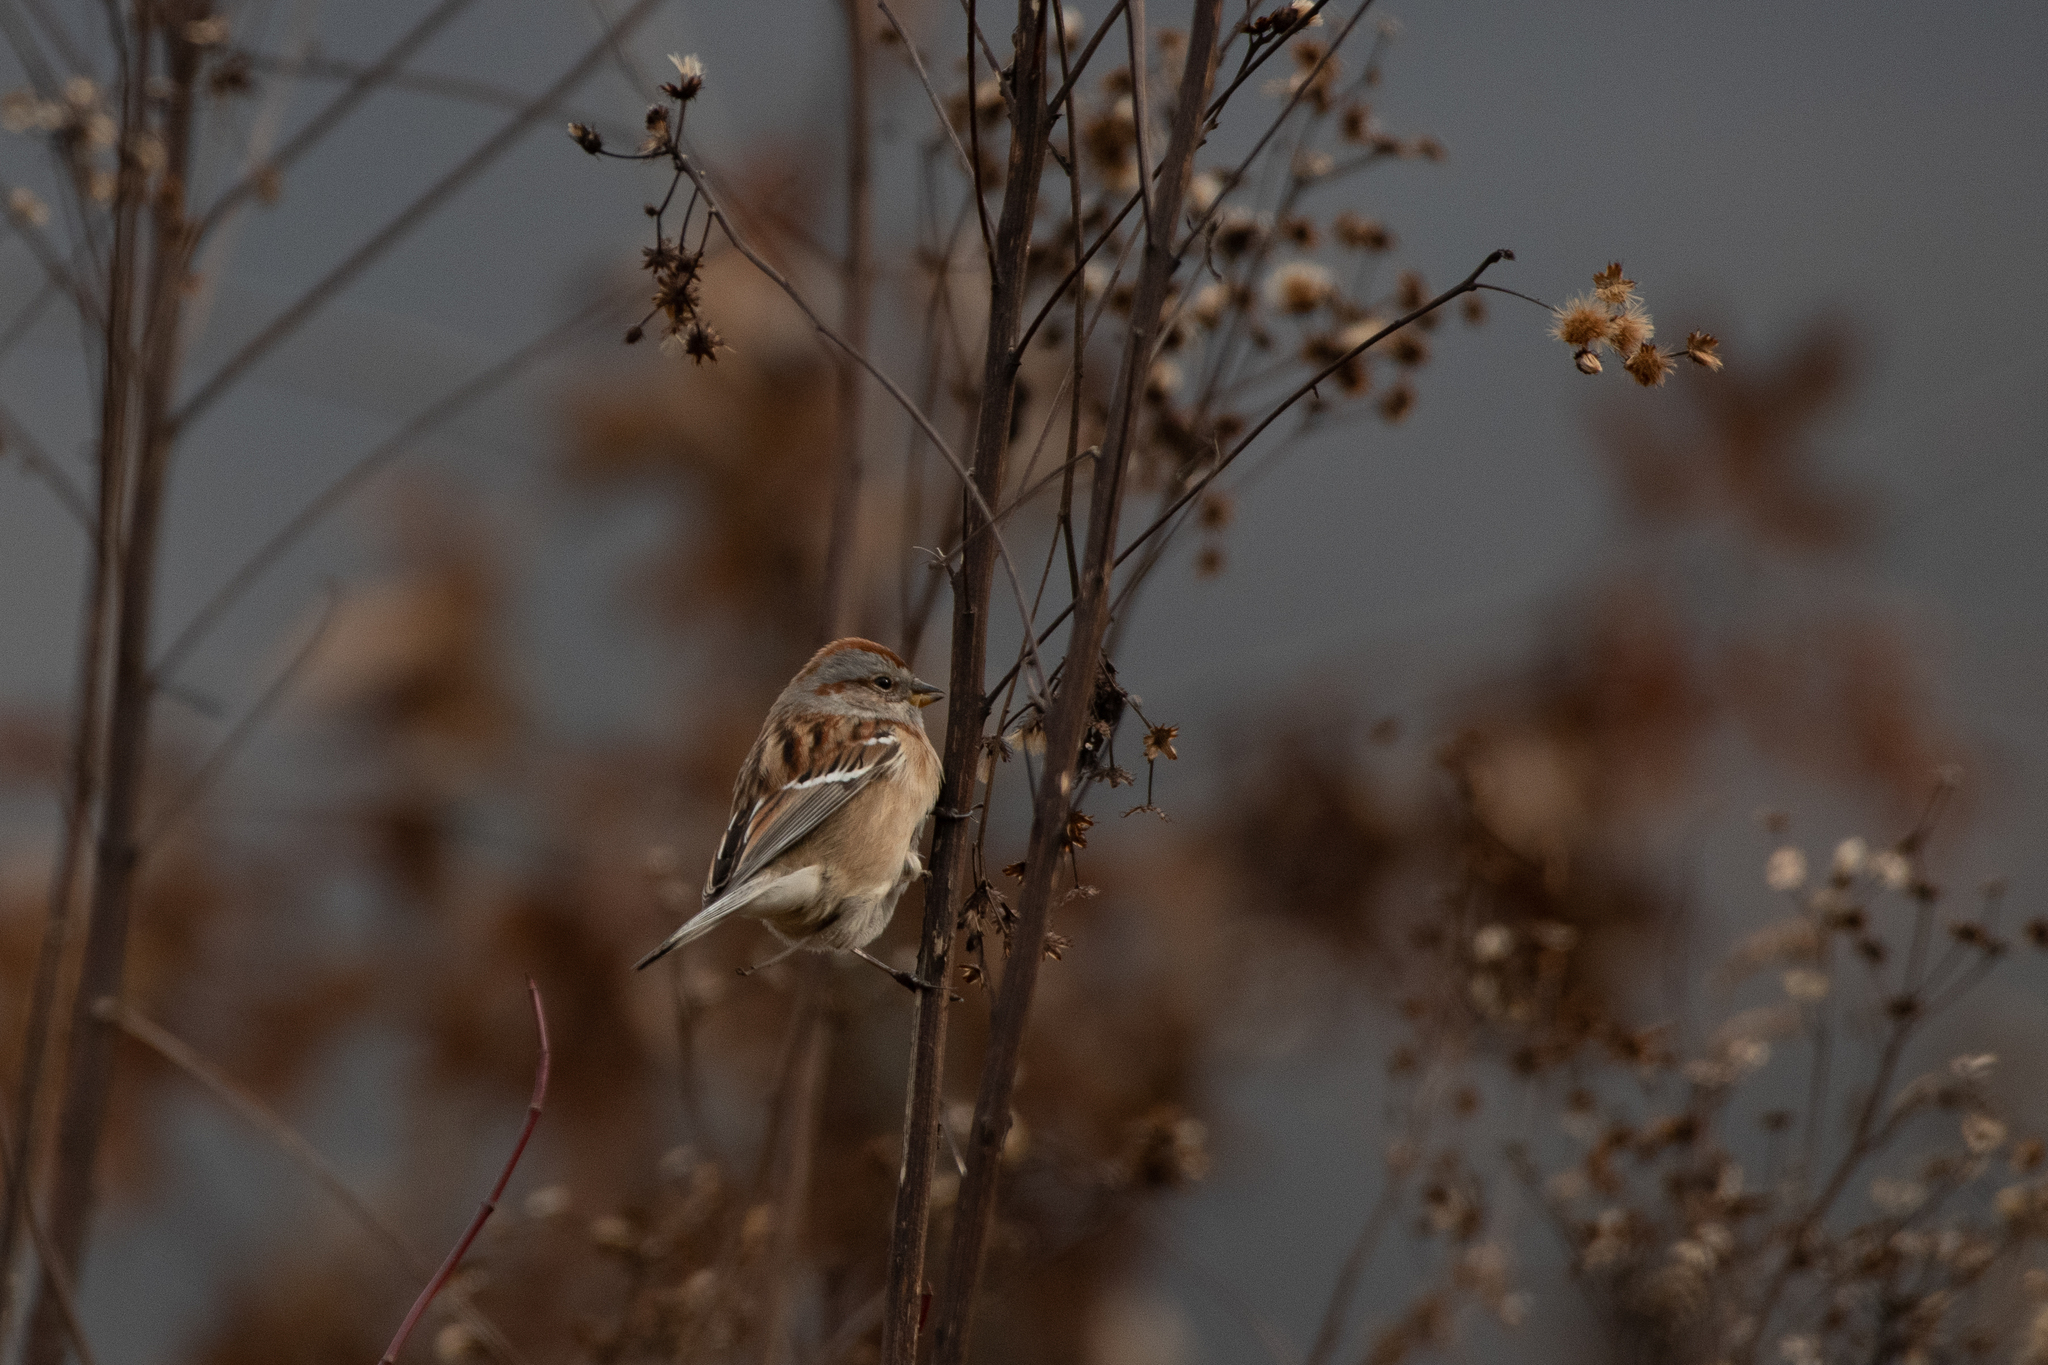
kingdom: Animalia
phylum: Chordata
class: Aves
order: Passeriformes
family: Passerellidae
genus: Spizelloides
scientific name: Spizelloides arborea
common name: American tree sparrow
